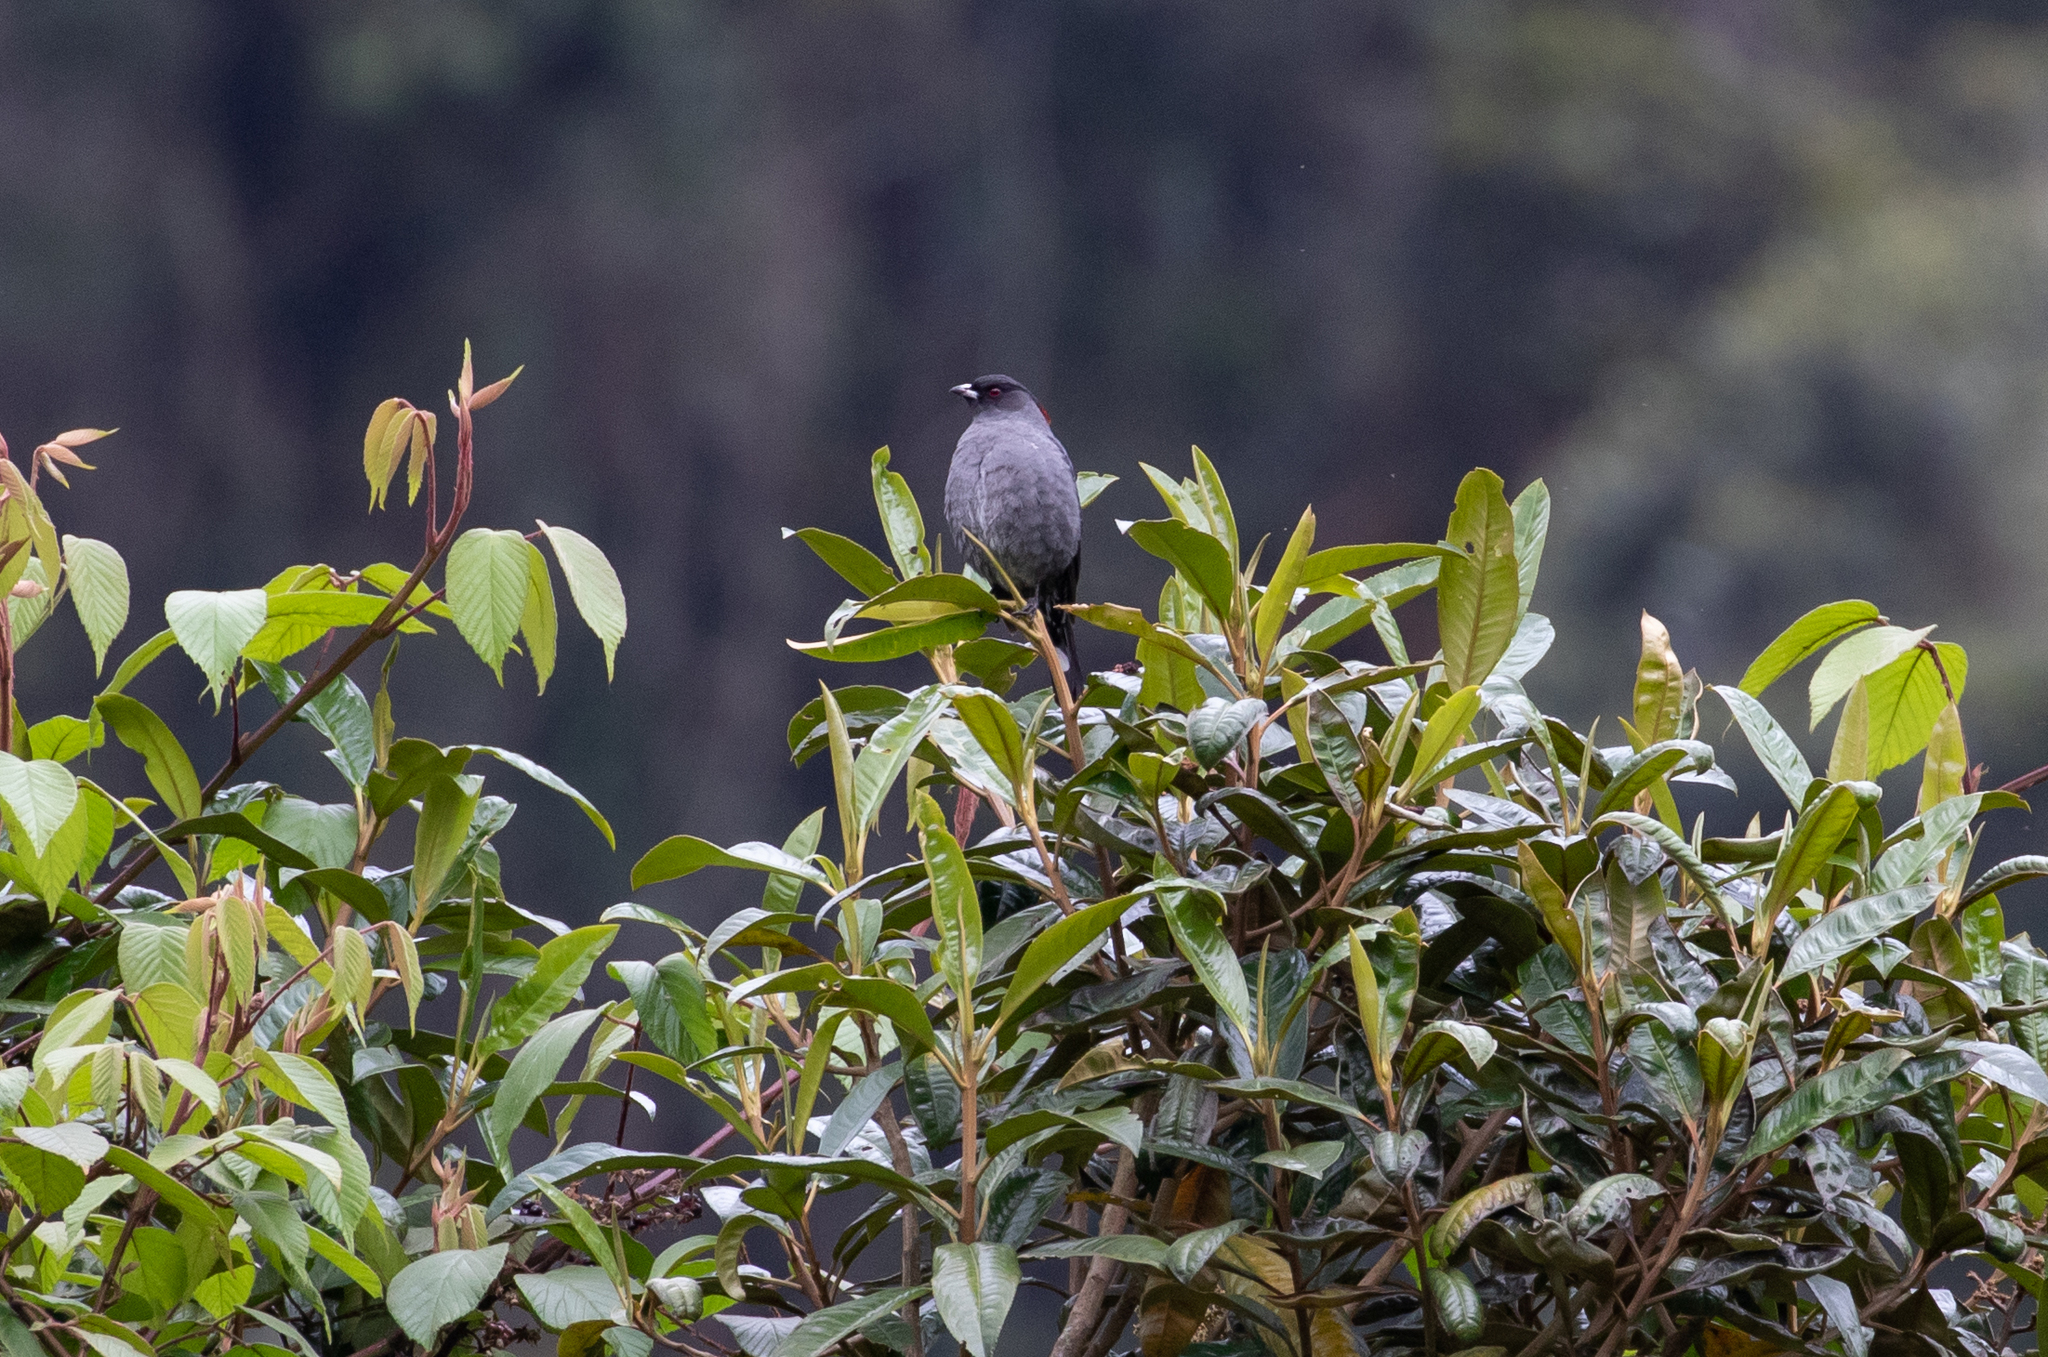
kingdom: Animalia
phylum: Chordata
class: Aves
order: Passeriformes
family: Cotingidae
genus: Ampelion
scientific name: Ampelion rubrocristatus
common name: Red-crested cotinga
